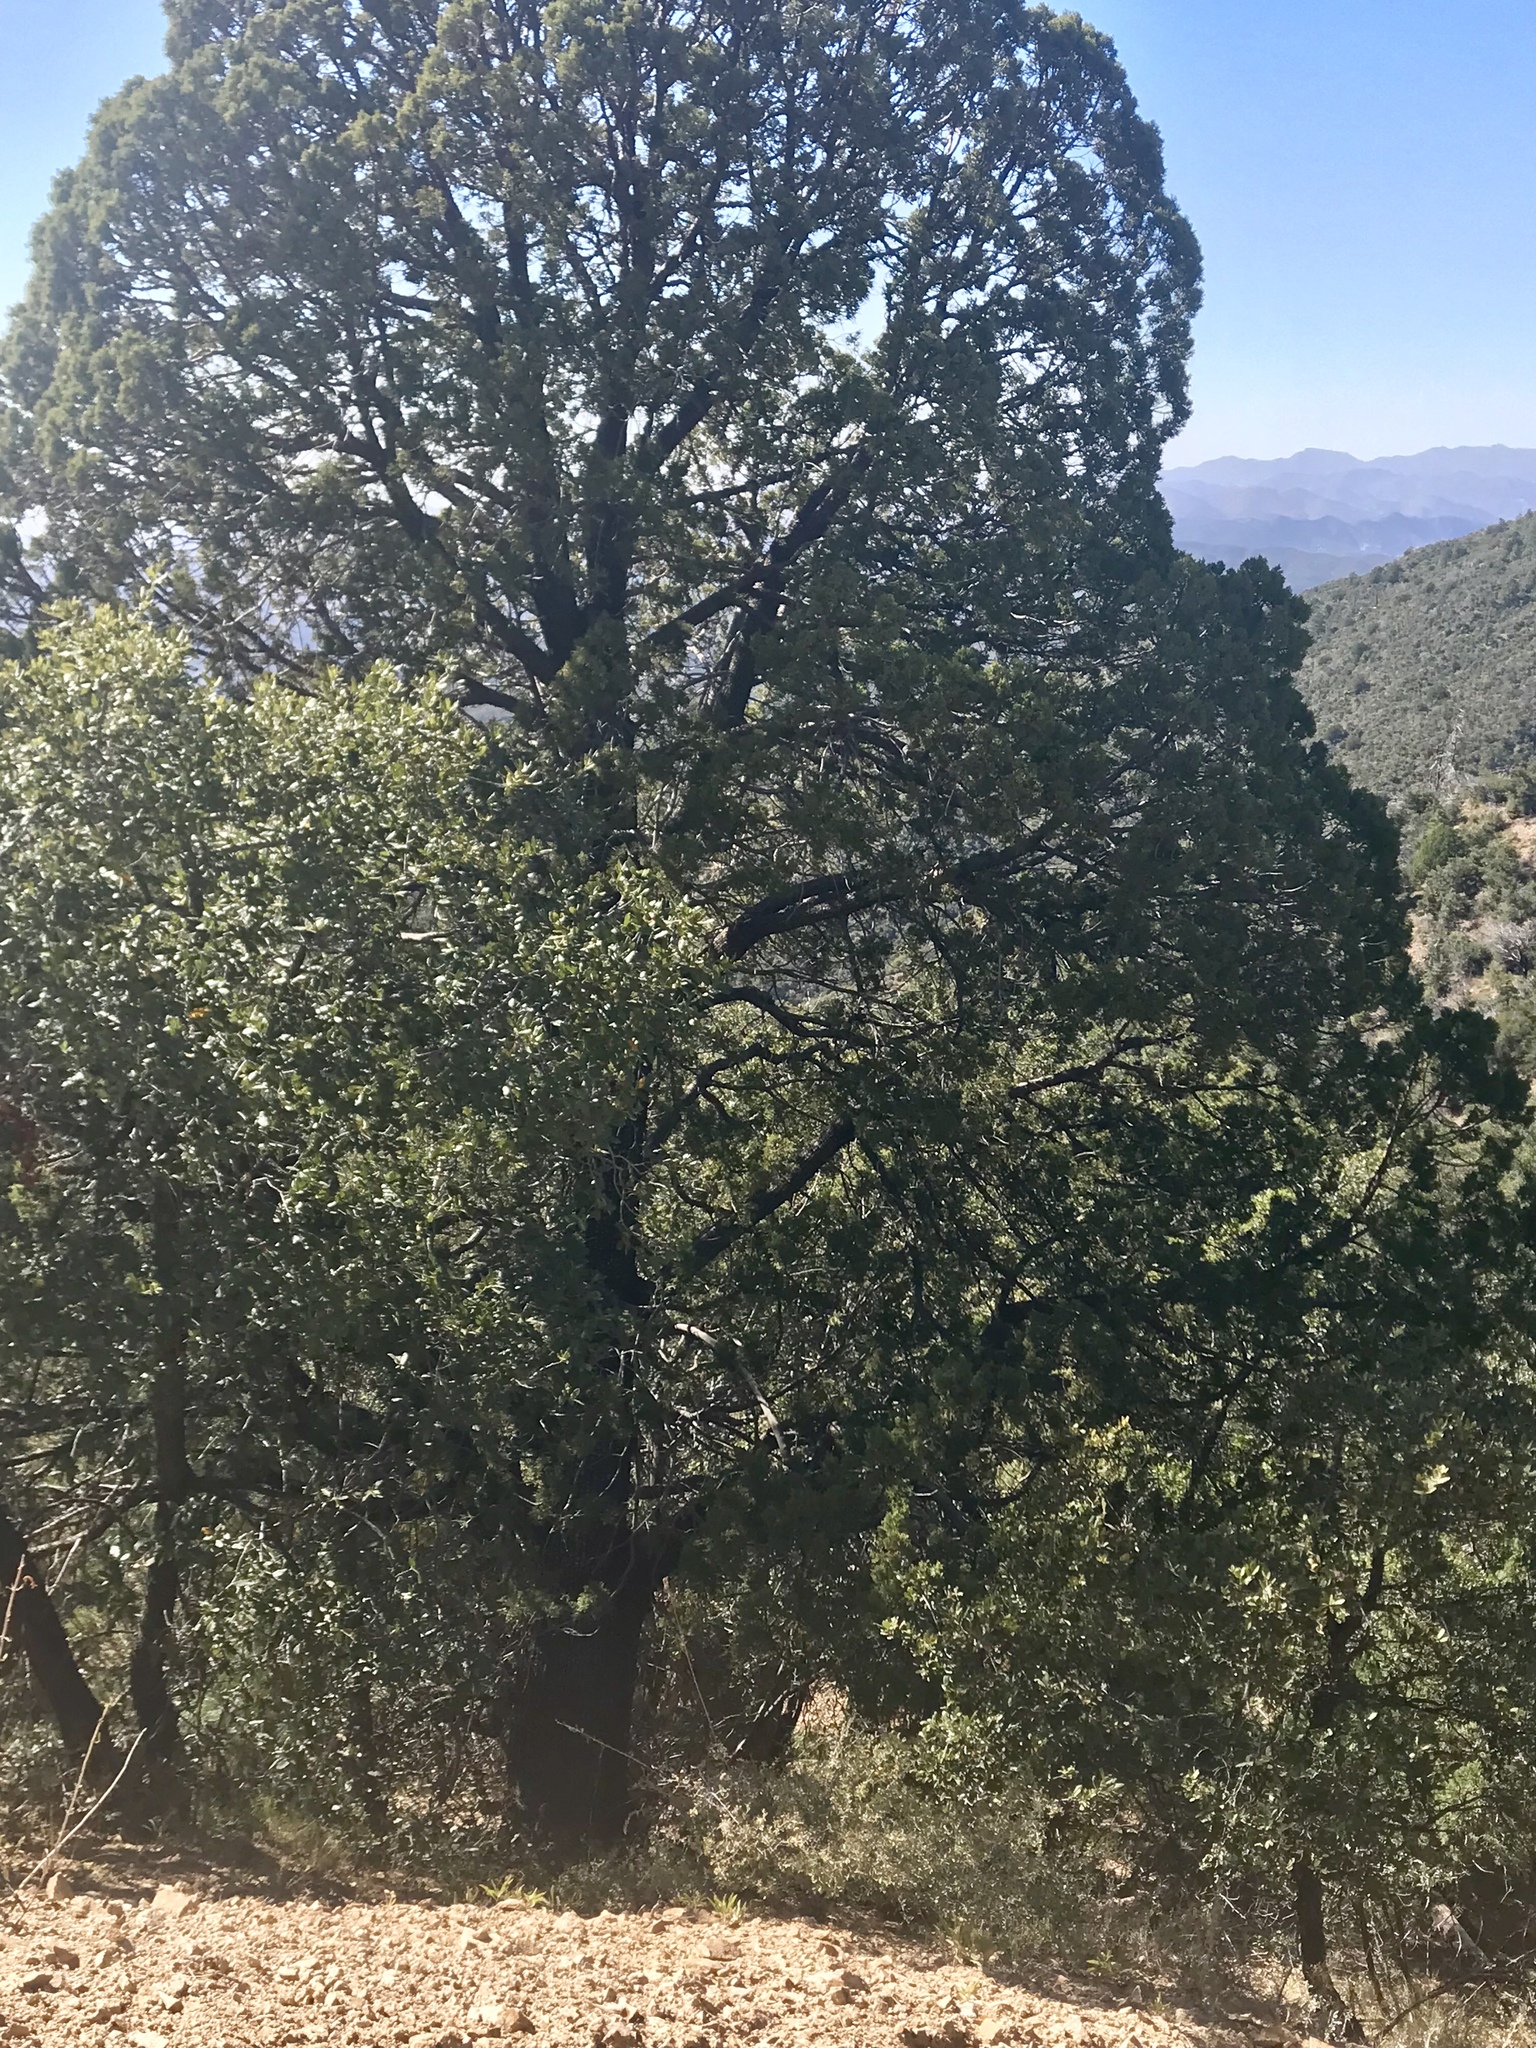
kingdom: Plantae
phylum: Tracheophyta
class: Pinopsida
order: Pinales
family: Cupressaceae
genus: Juniperus
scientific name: Juniperus deppeana
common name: Alligator juniper
